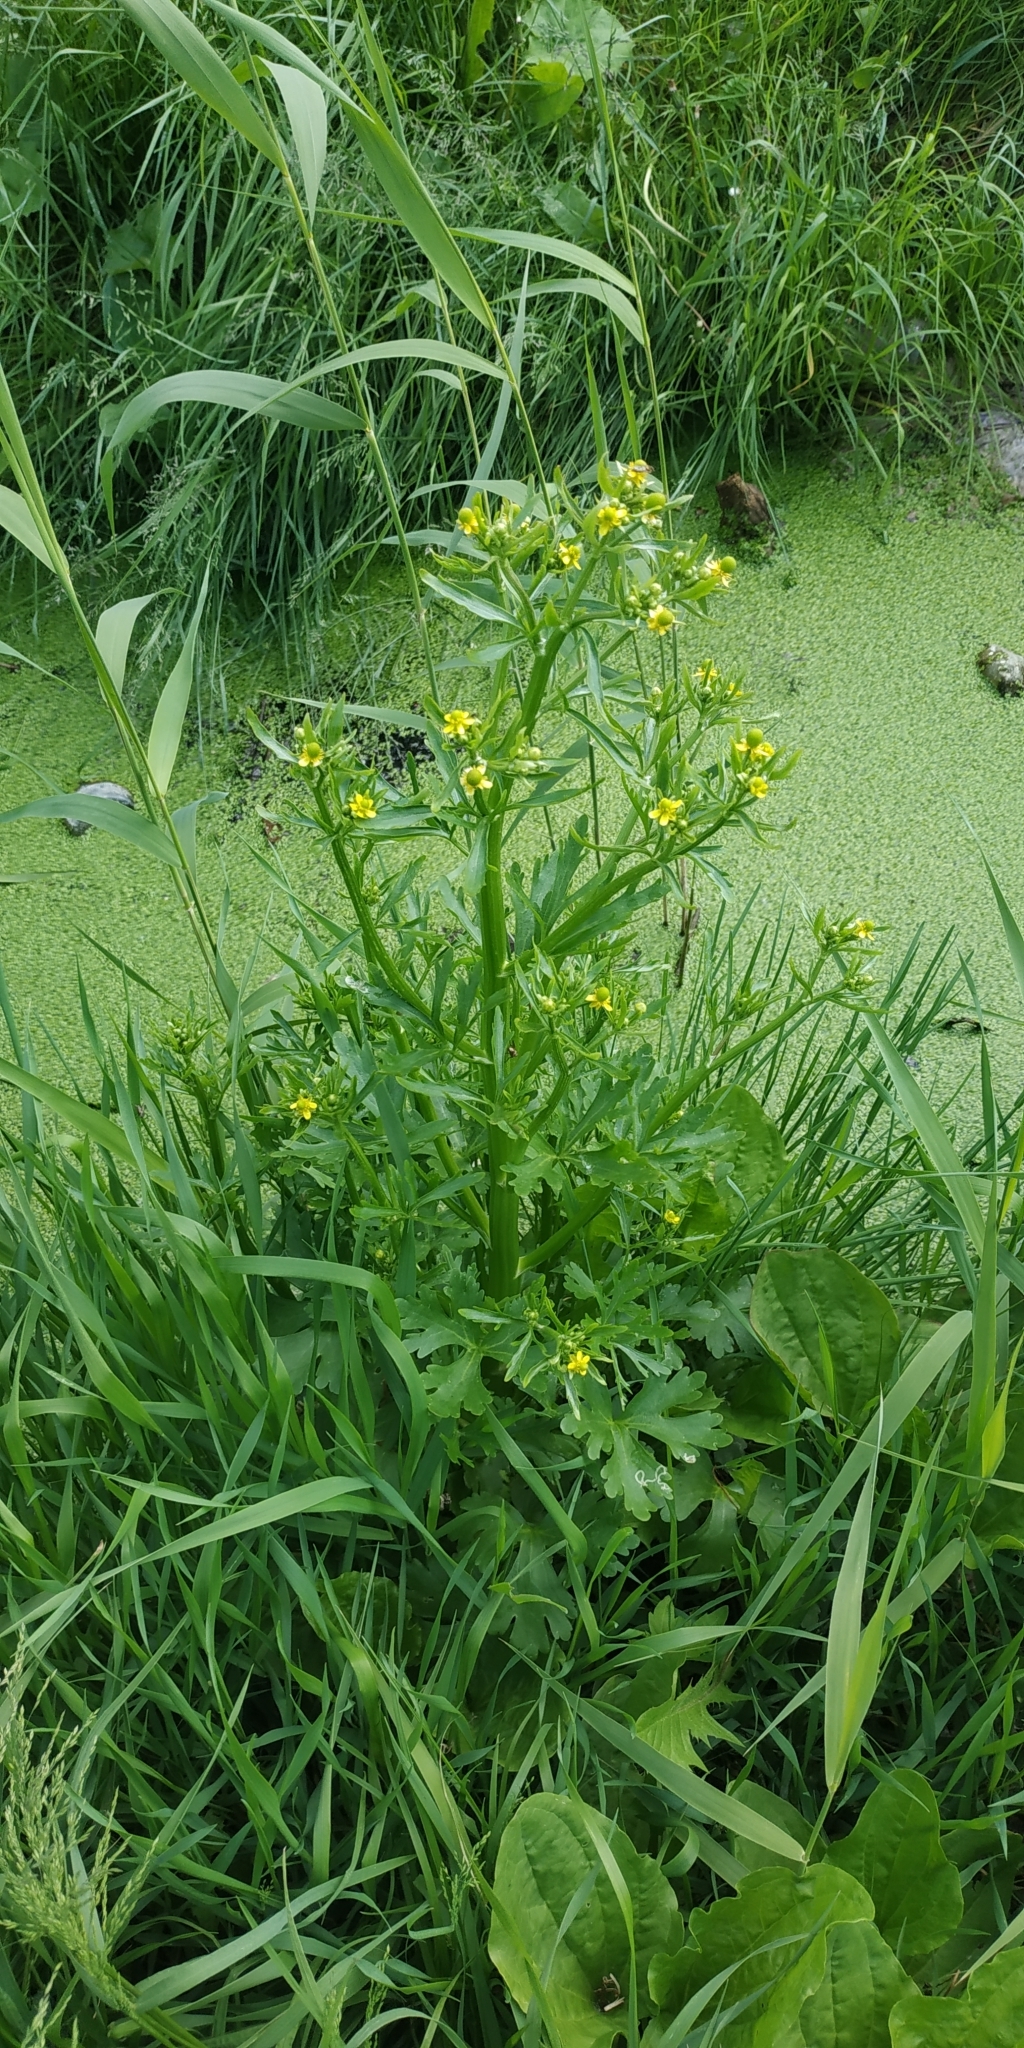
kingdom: Plantae
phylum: Tracheophyta
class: Magnoliopsida
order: Ranunculales
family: Ranunculaceae
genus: Ranunculus
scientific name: Ranunculus sceleratus
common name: Celery-leaved buttercup
